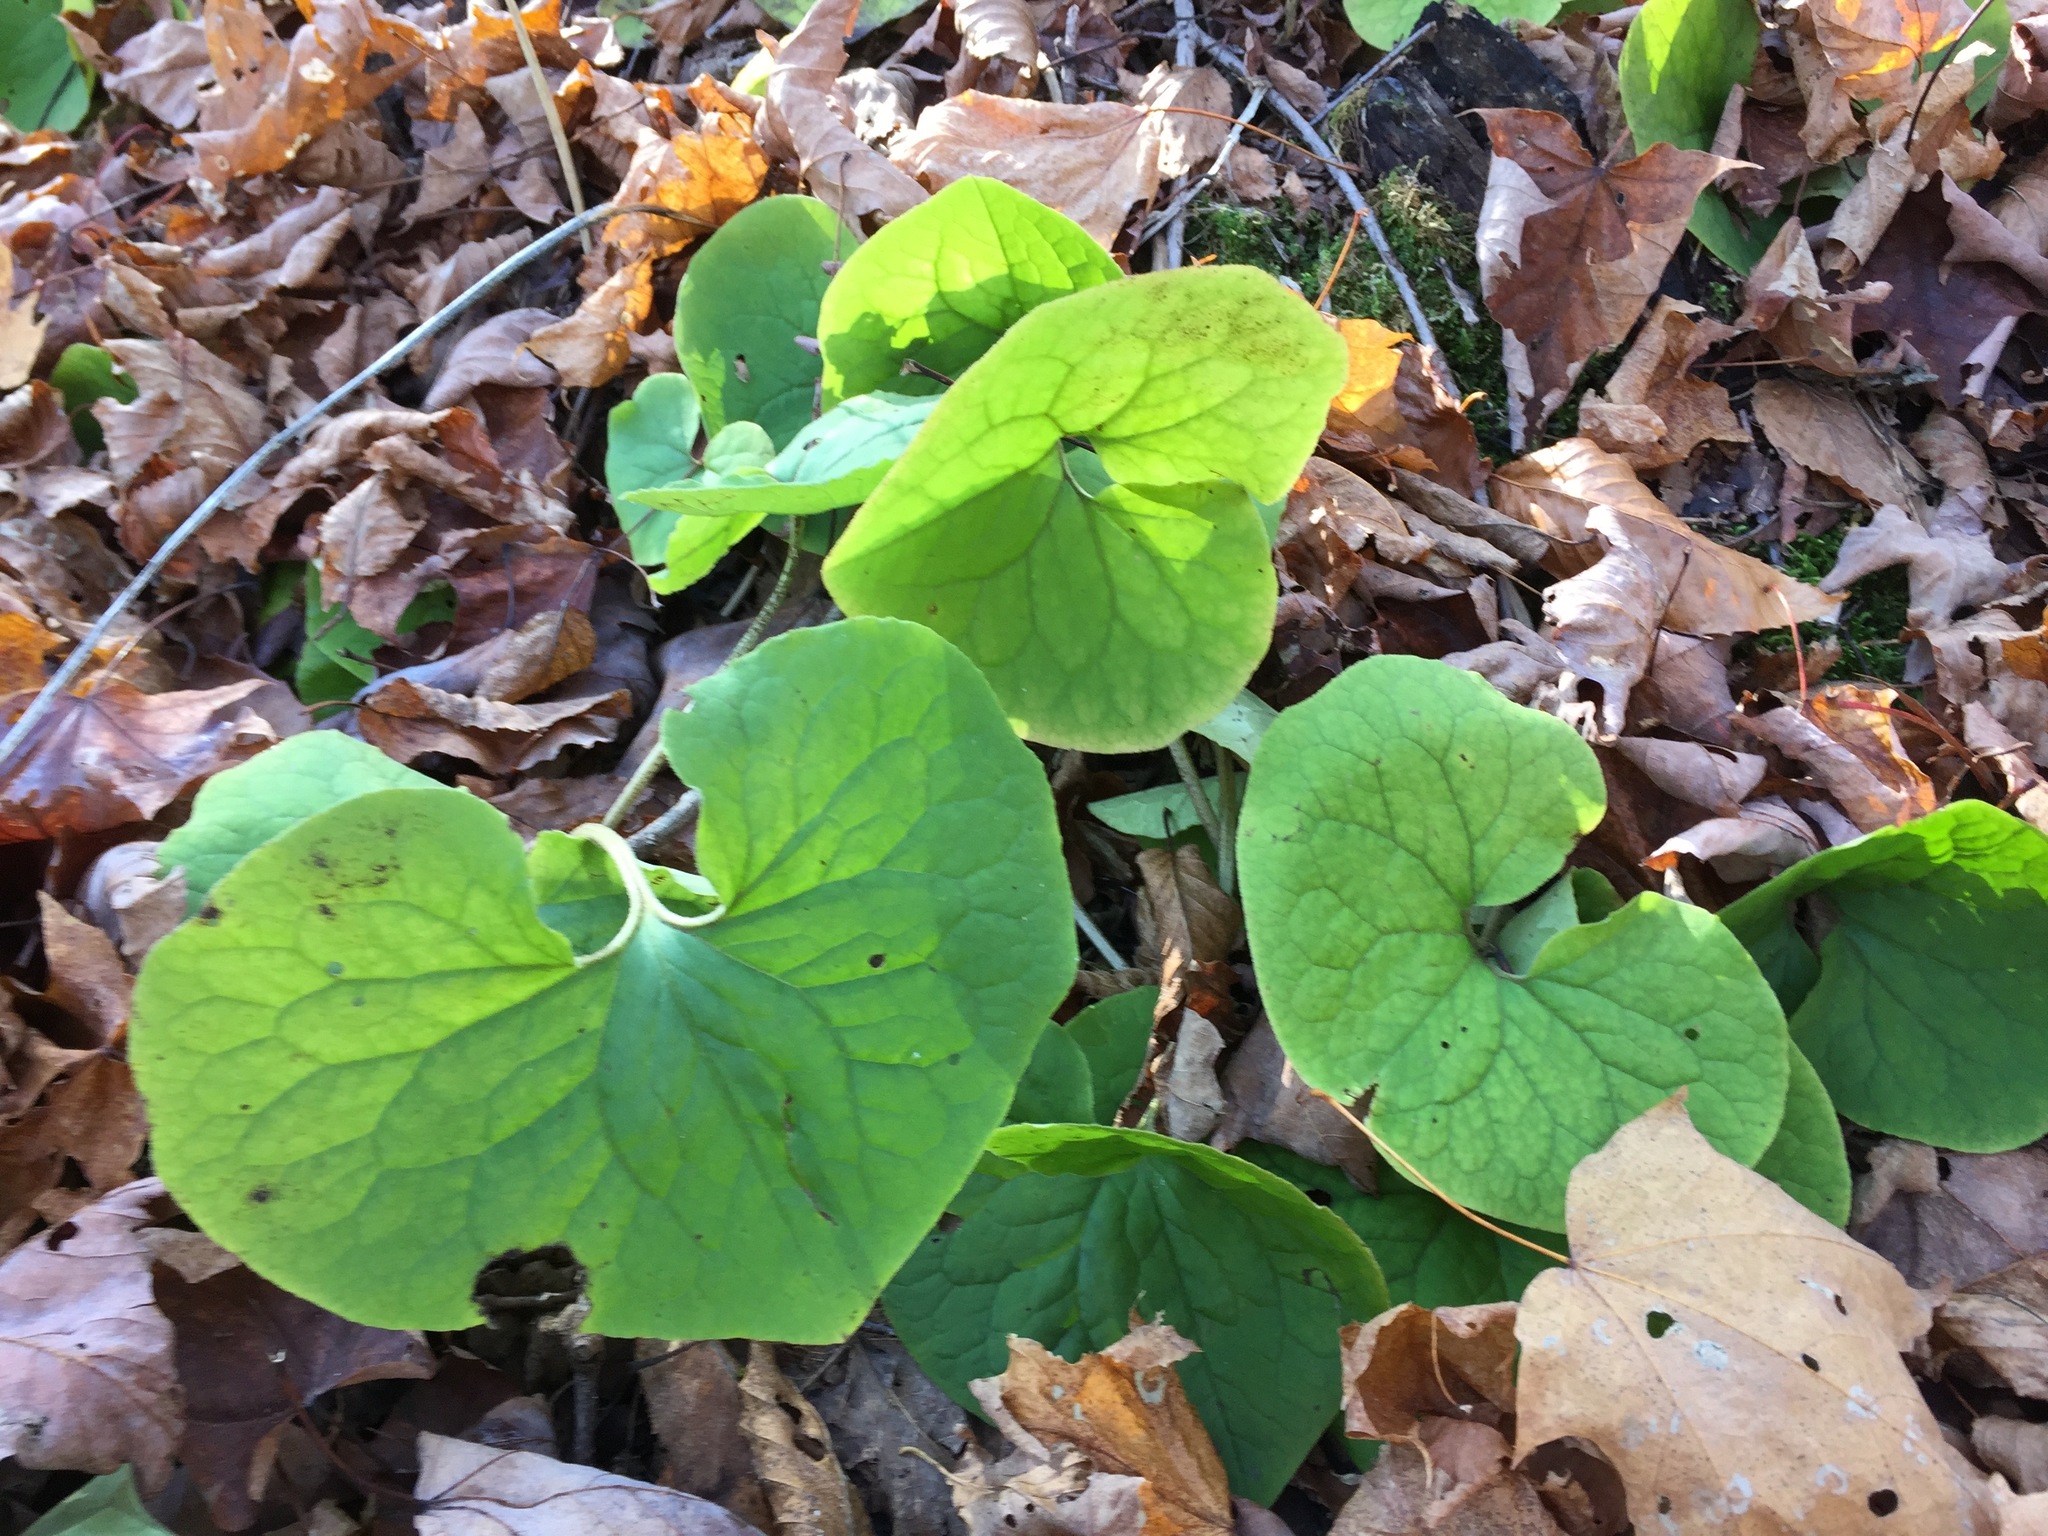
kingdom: Plantae
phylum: Tracheophyta
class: Magnoliopsida
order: Piperales
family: Aristolochiaceae
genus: Asarum
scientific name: Asarum canadense
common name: Wild ginger
